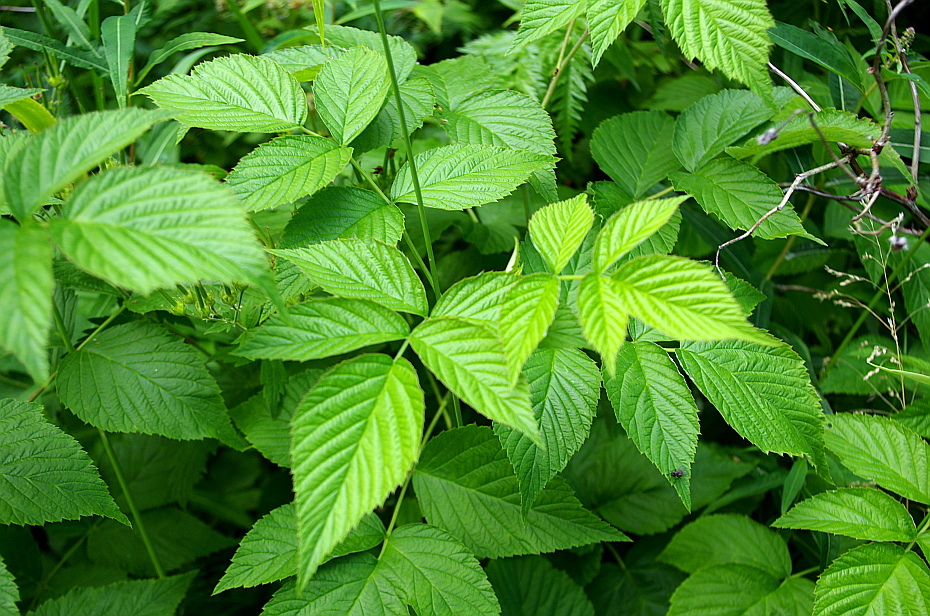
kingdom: Plantae
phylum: Tracheophyta
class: Magnoliopsida
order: Rosales
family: Rosaceae
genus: Rubus
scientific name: Rubus idaeus
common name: Raspberry
